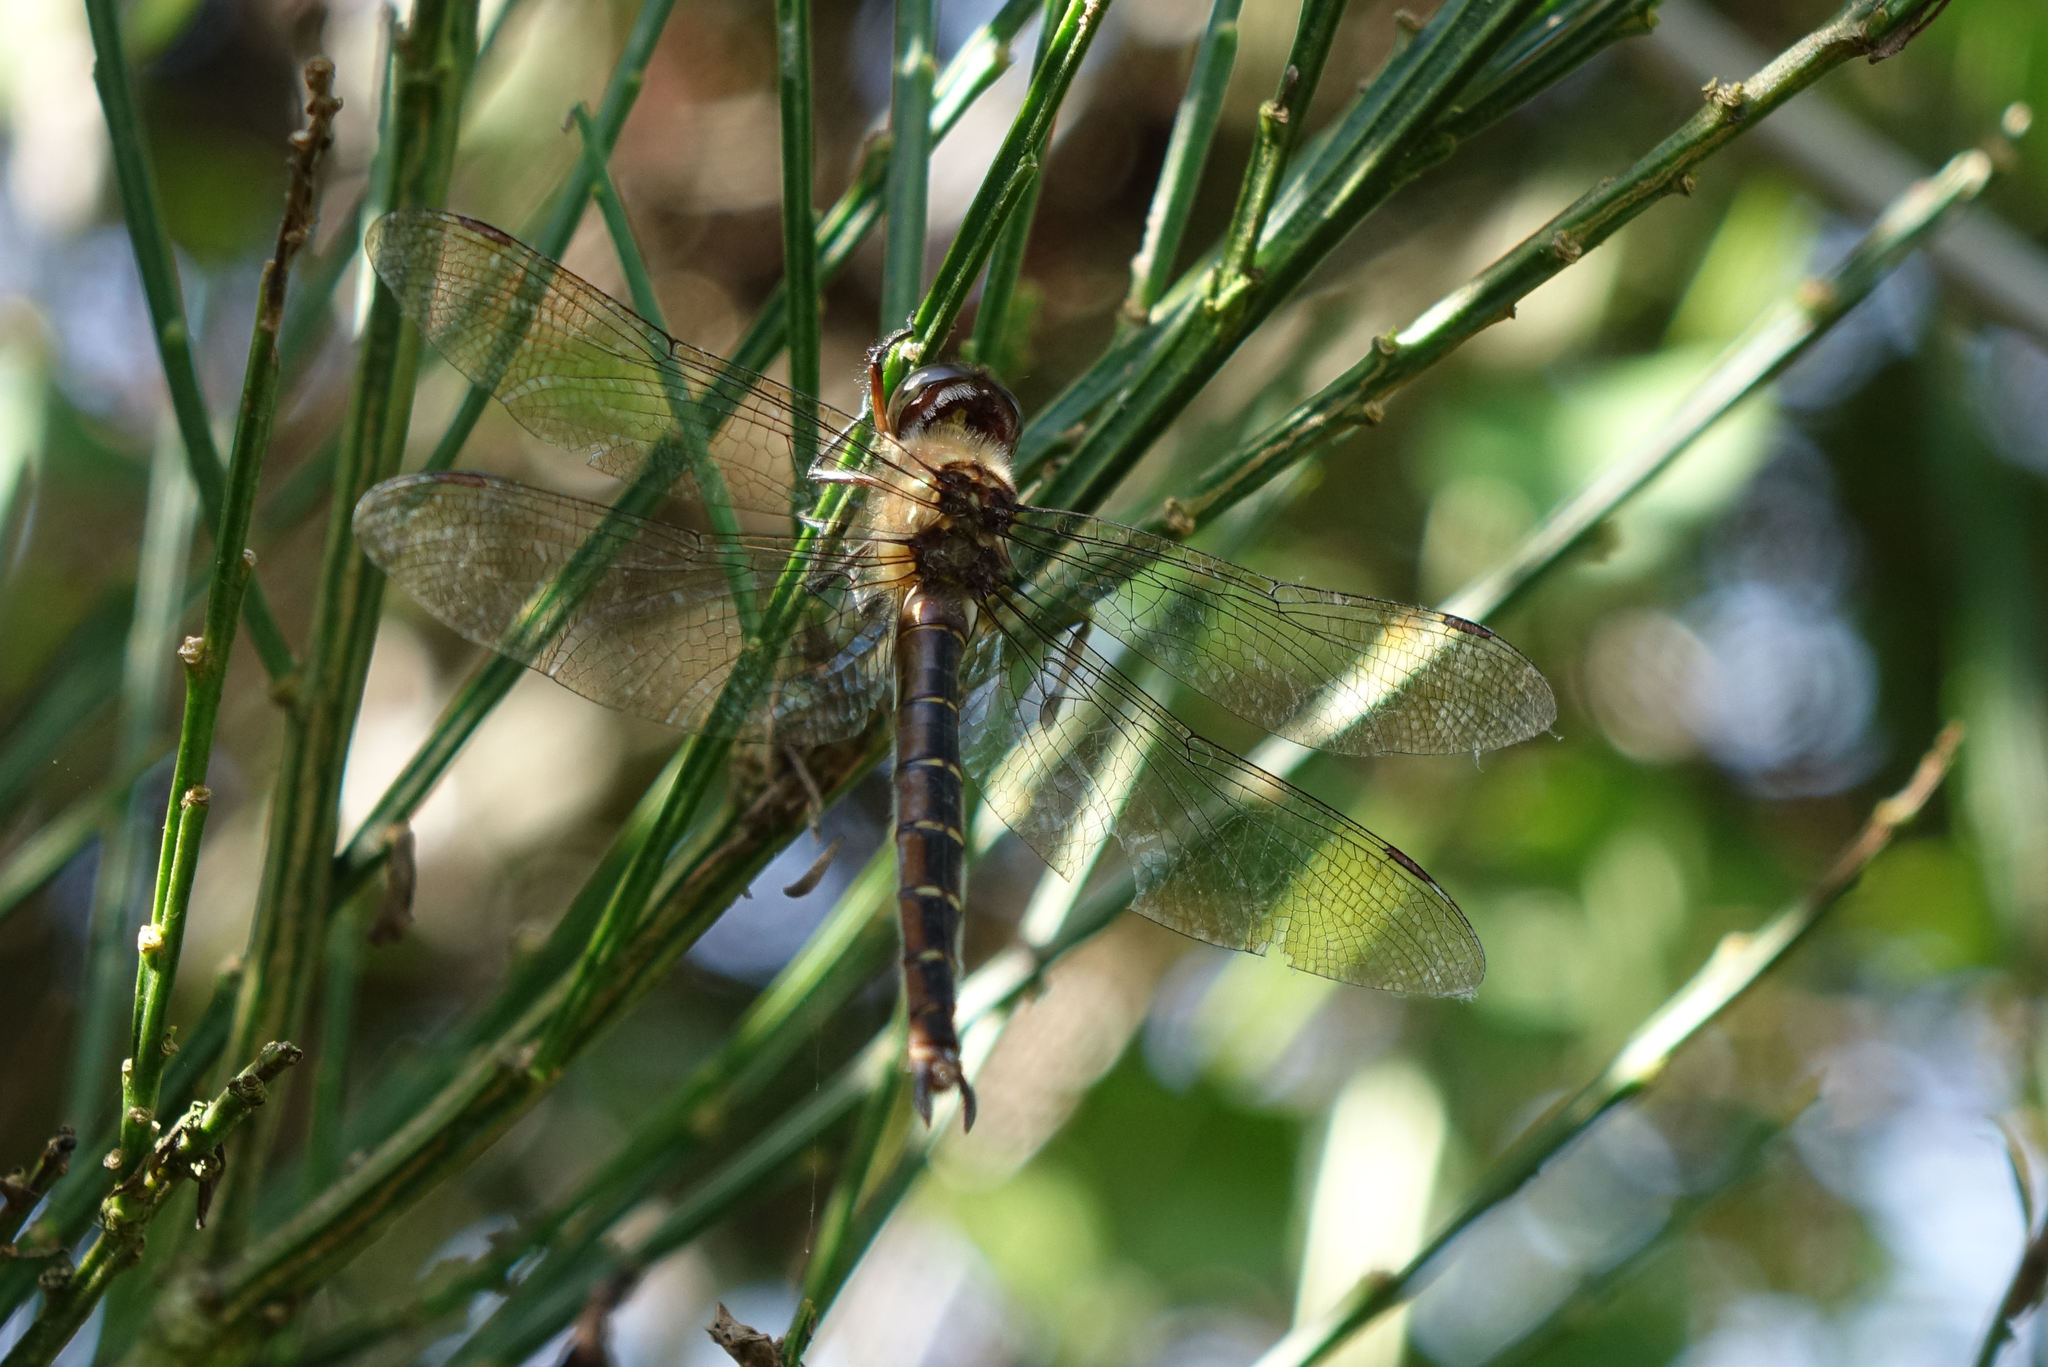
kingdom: Animalia
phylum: Arthropoda
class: Insecta
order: Odonata
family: Corduliidae
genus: Procordulia
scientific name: Procordulia smithii
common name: Ranger dragonfly
